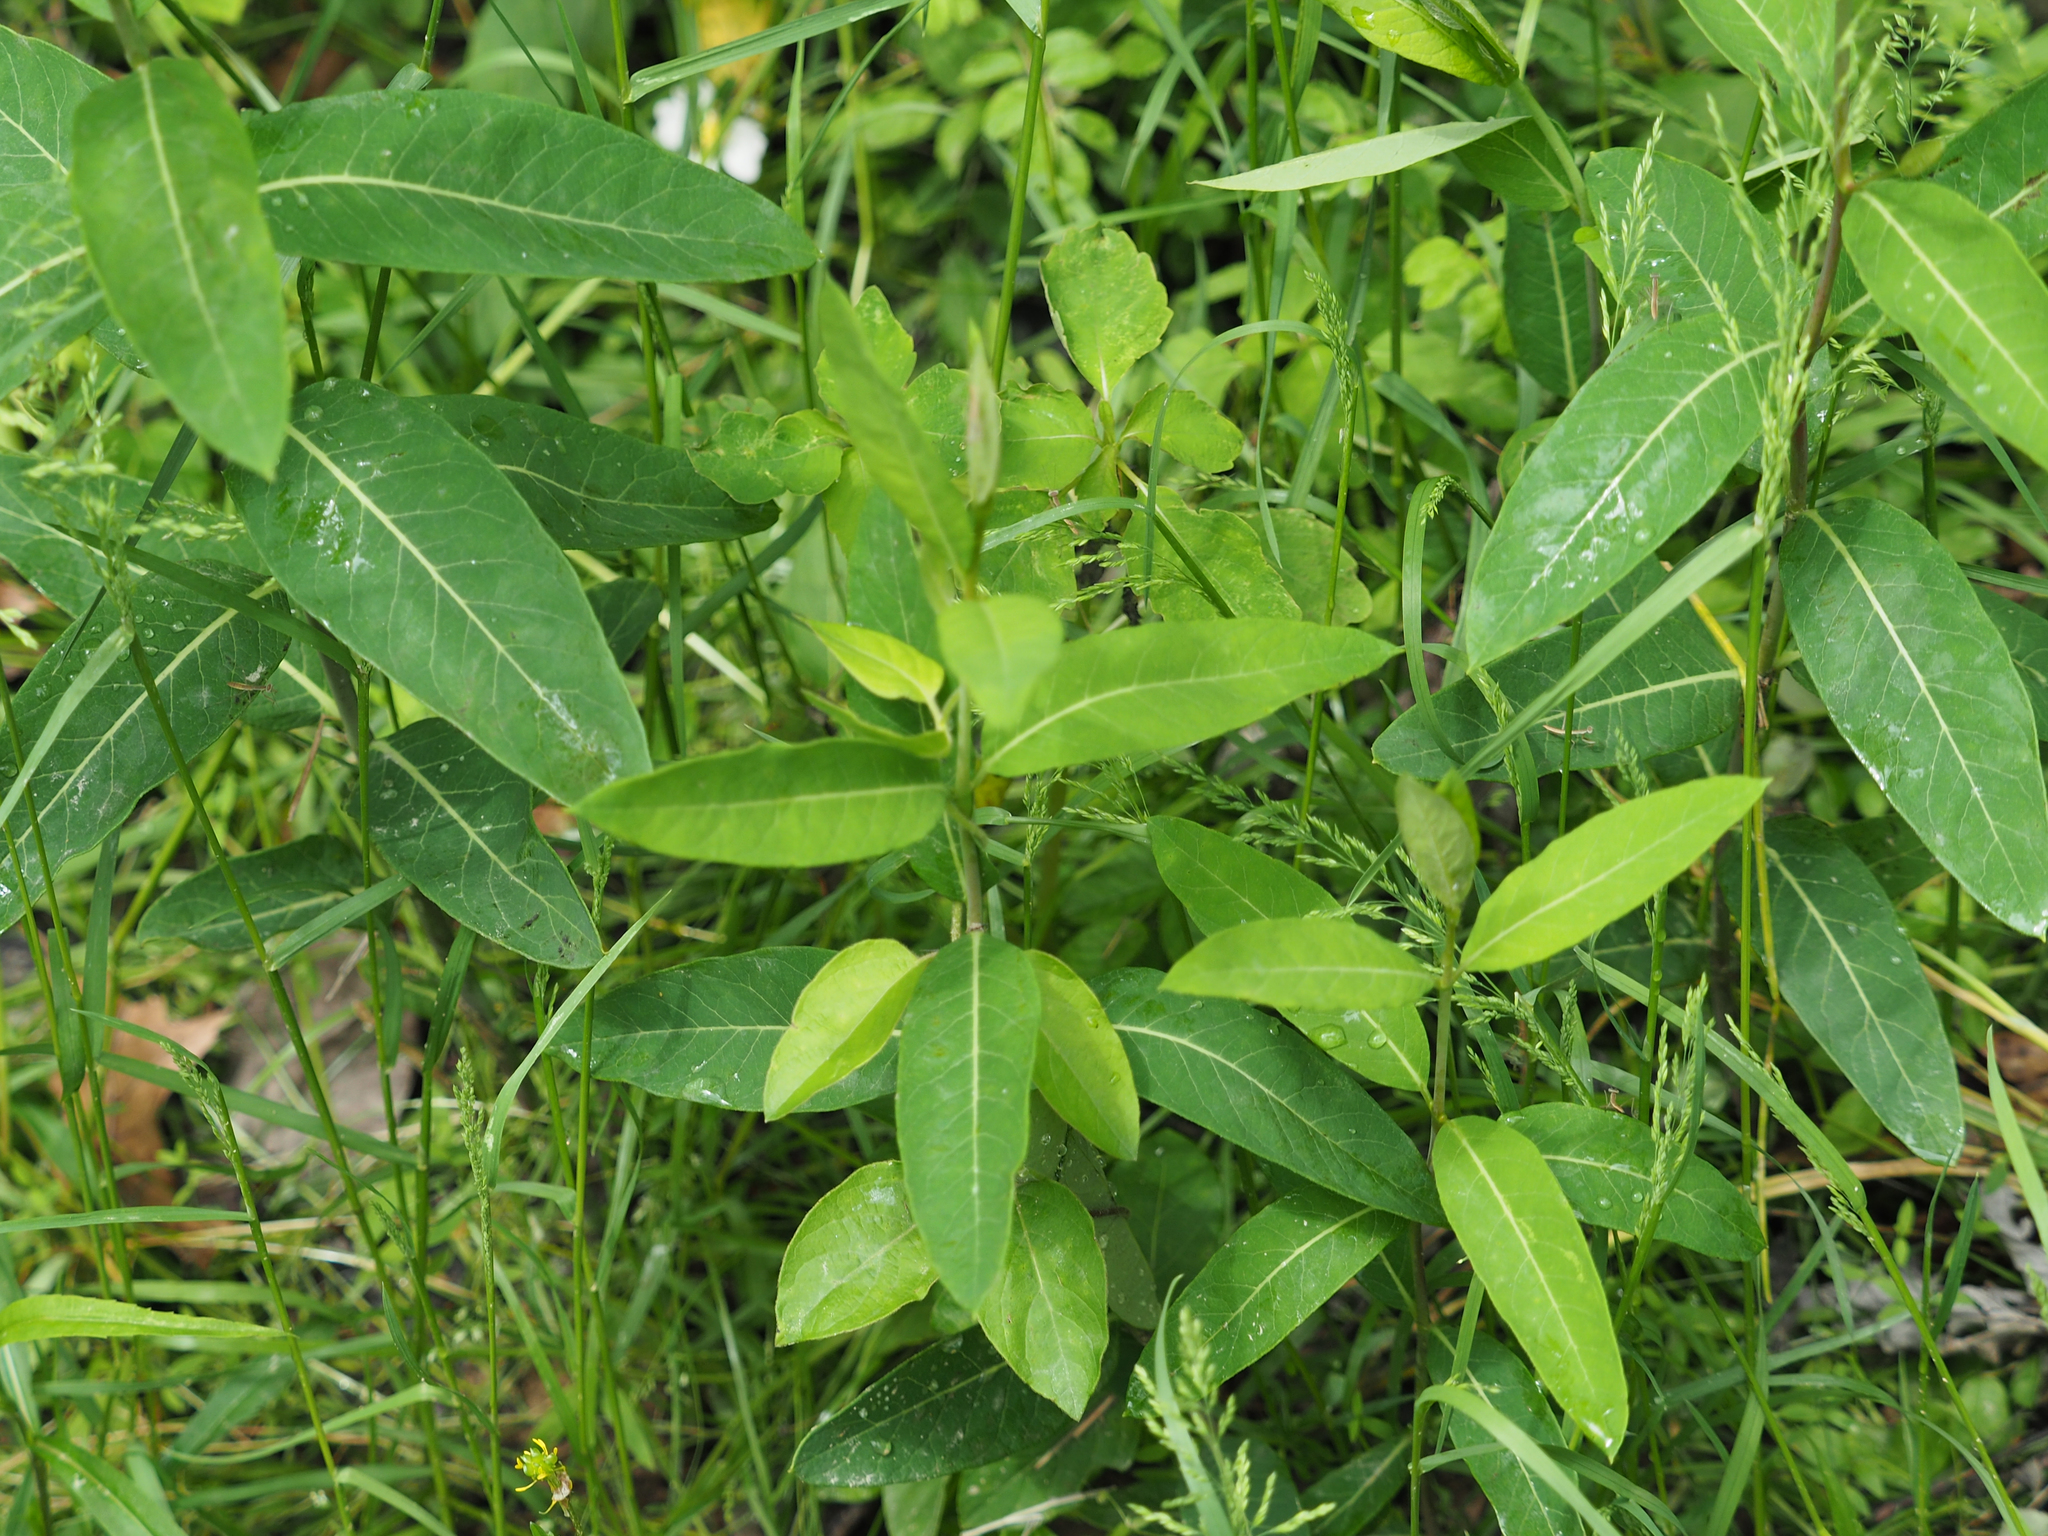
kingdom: Plantae
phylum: Tracheophyta
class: Magnoliopsida
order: Gentianales
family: Apocynaceae
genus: Apocynum
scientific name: Apocynum cannabinum
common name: Hemp dogbane
